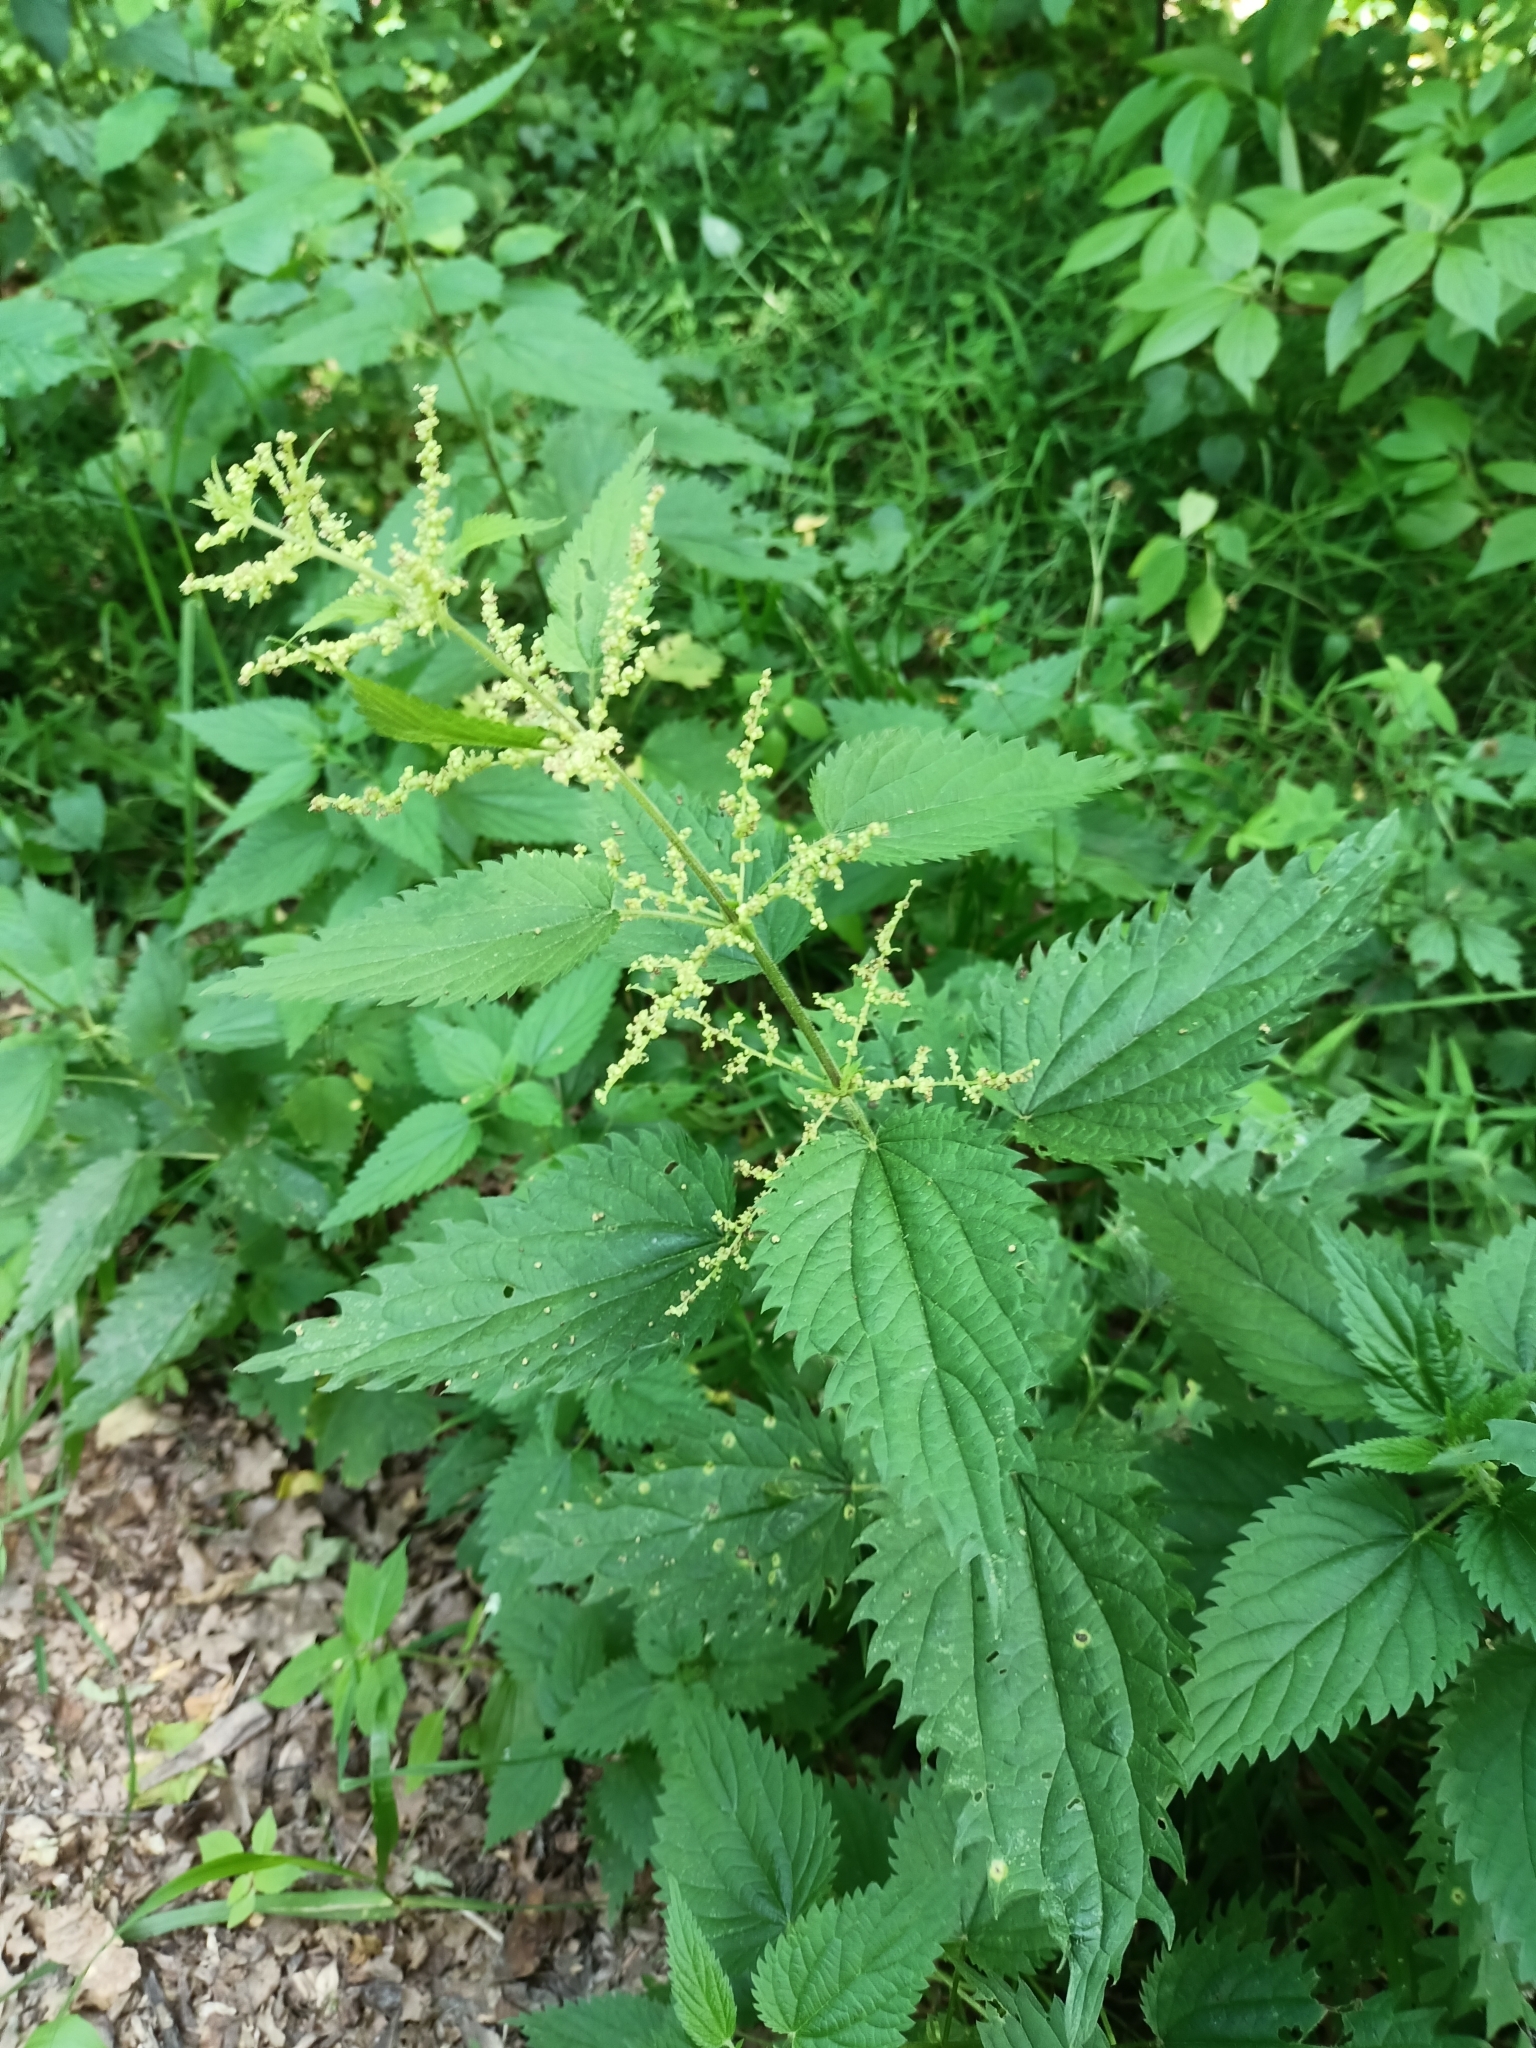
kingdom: Plantae
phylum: Tracheophyta
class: Magnoliopsida
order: Rosales
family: Urticaceae
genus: Urtica
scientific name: Urtica dioica
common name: Common nettle
